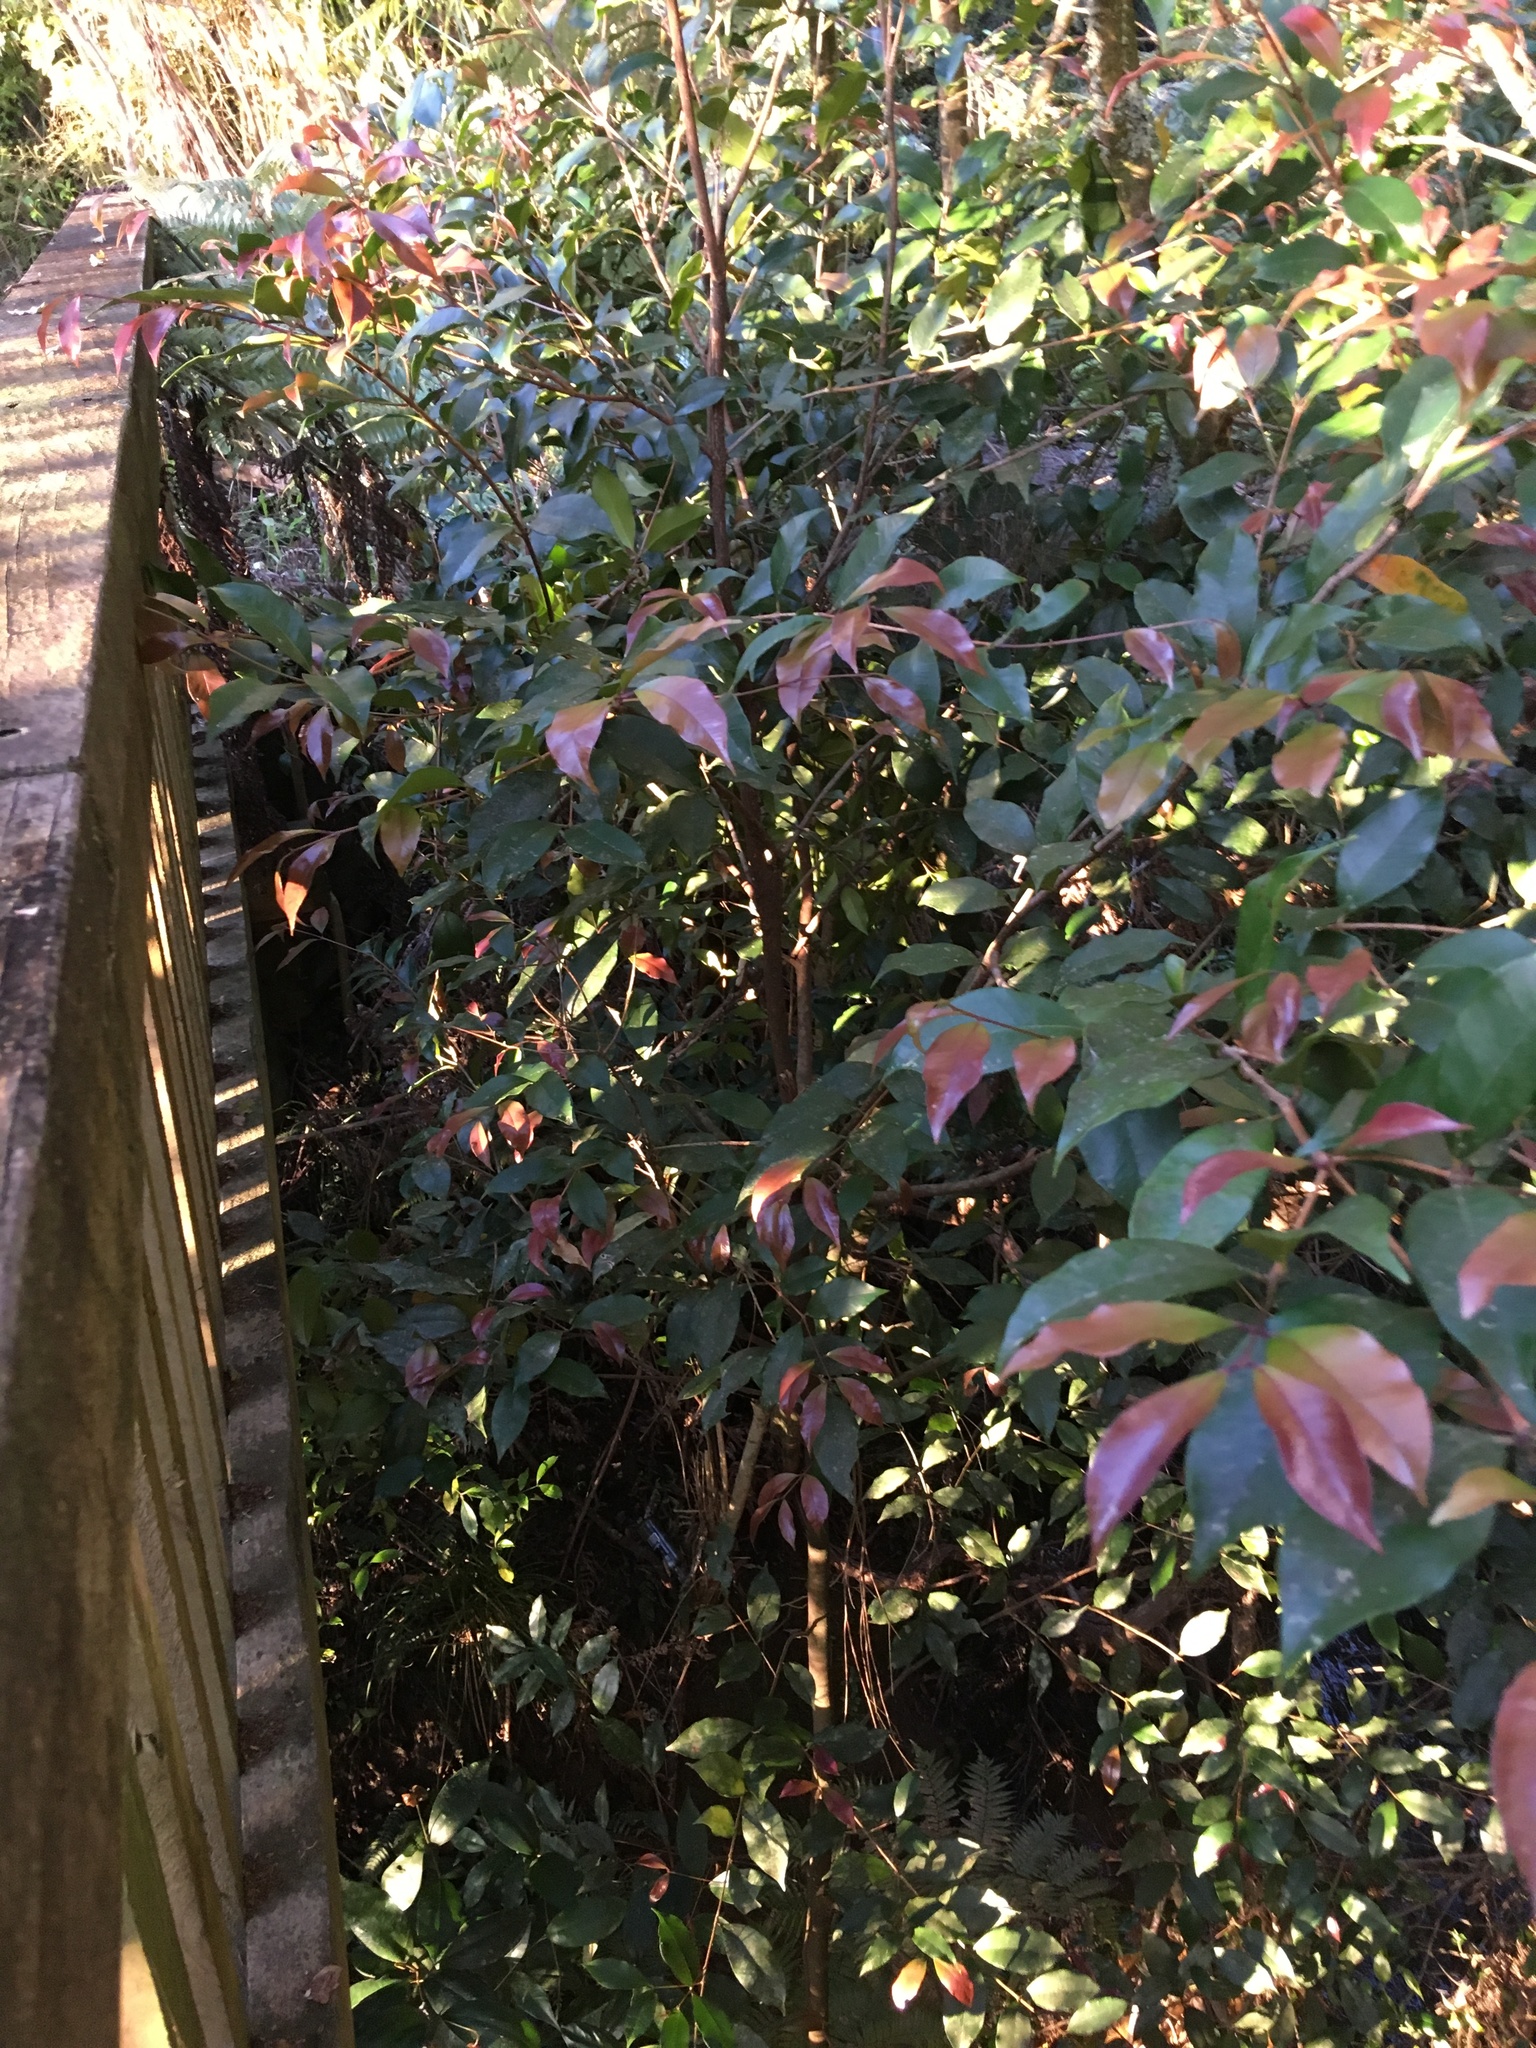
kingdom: Plantae
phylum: Tracheophyta
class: Magnoliopsida
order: Myrtales
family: Myrtaceae
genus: Syzygium
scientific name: Syzygium smithii
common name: Lilly-pilly
